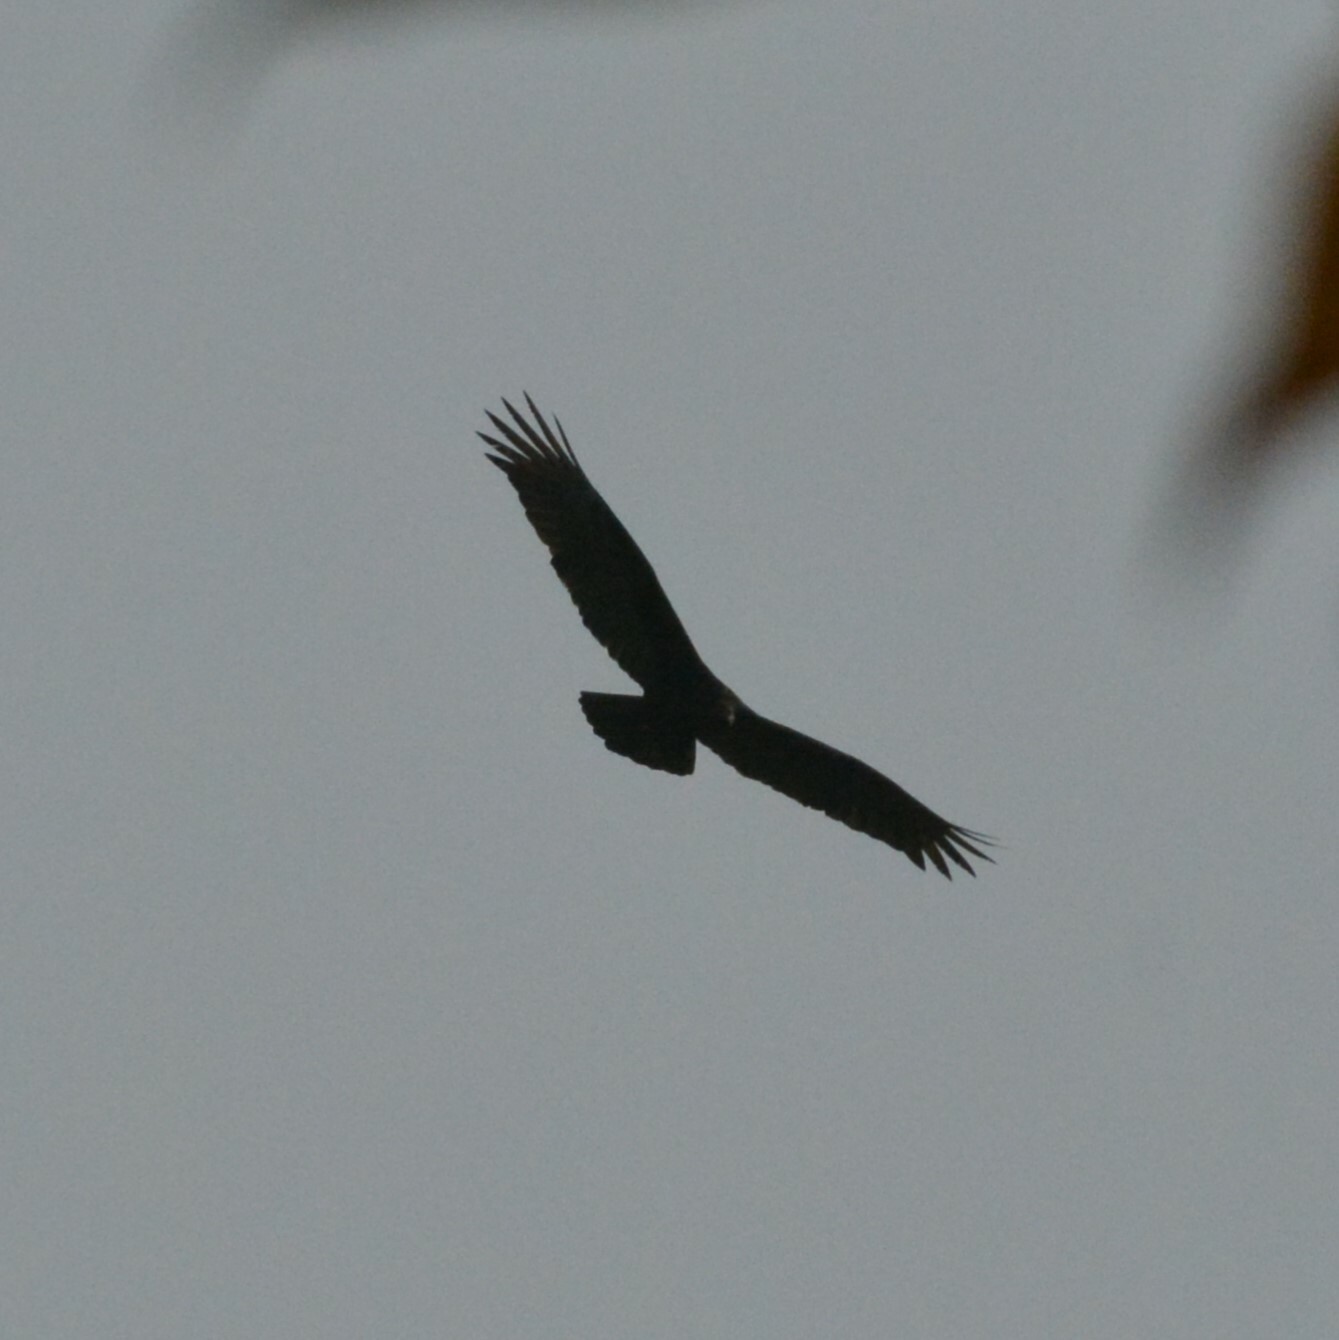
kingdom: Animalia
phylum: Chordata
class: Aves
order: Accipitriformes
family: Cathartidae
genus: Cathartes
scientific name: Cathartes aura
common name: Turkey vulture
